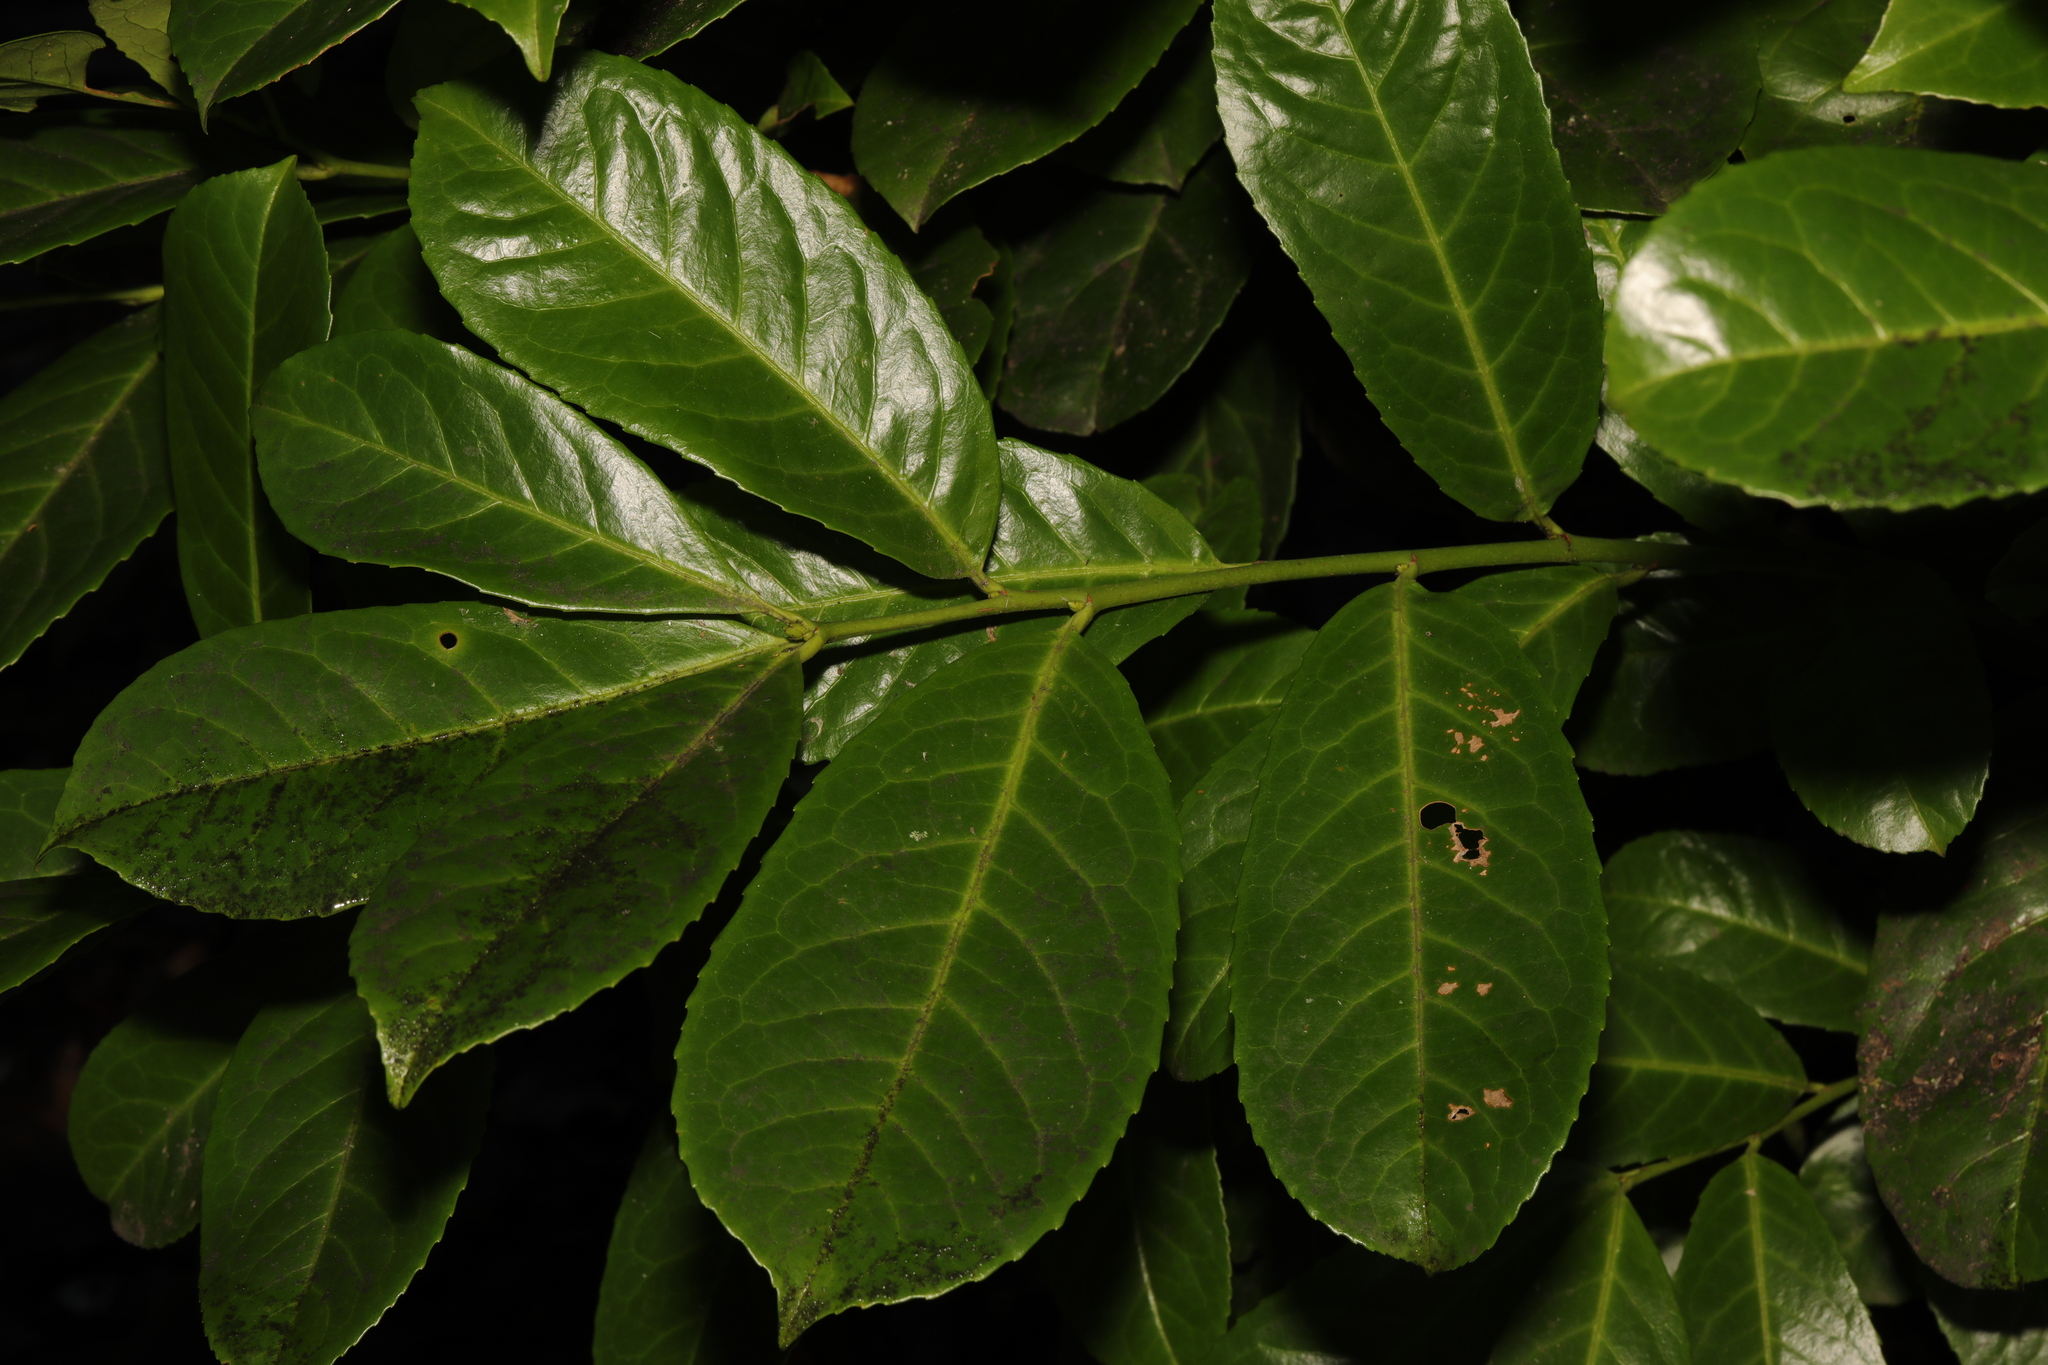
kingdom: Plantae
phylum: Tracheophyta
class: Magnoliopsida
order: Rosales
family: Rosaceae
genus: Prunus
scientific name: Prunus laurocerasus
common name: Cherry laurel
